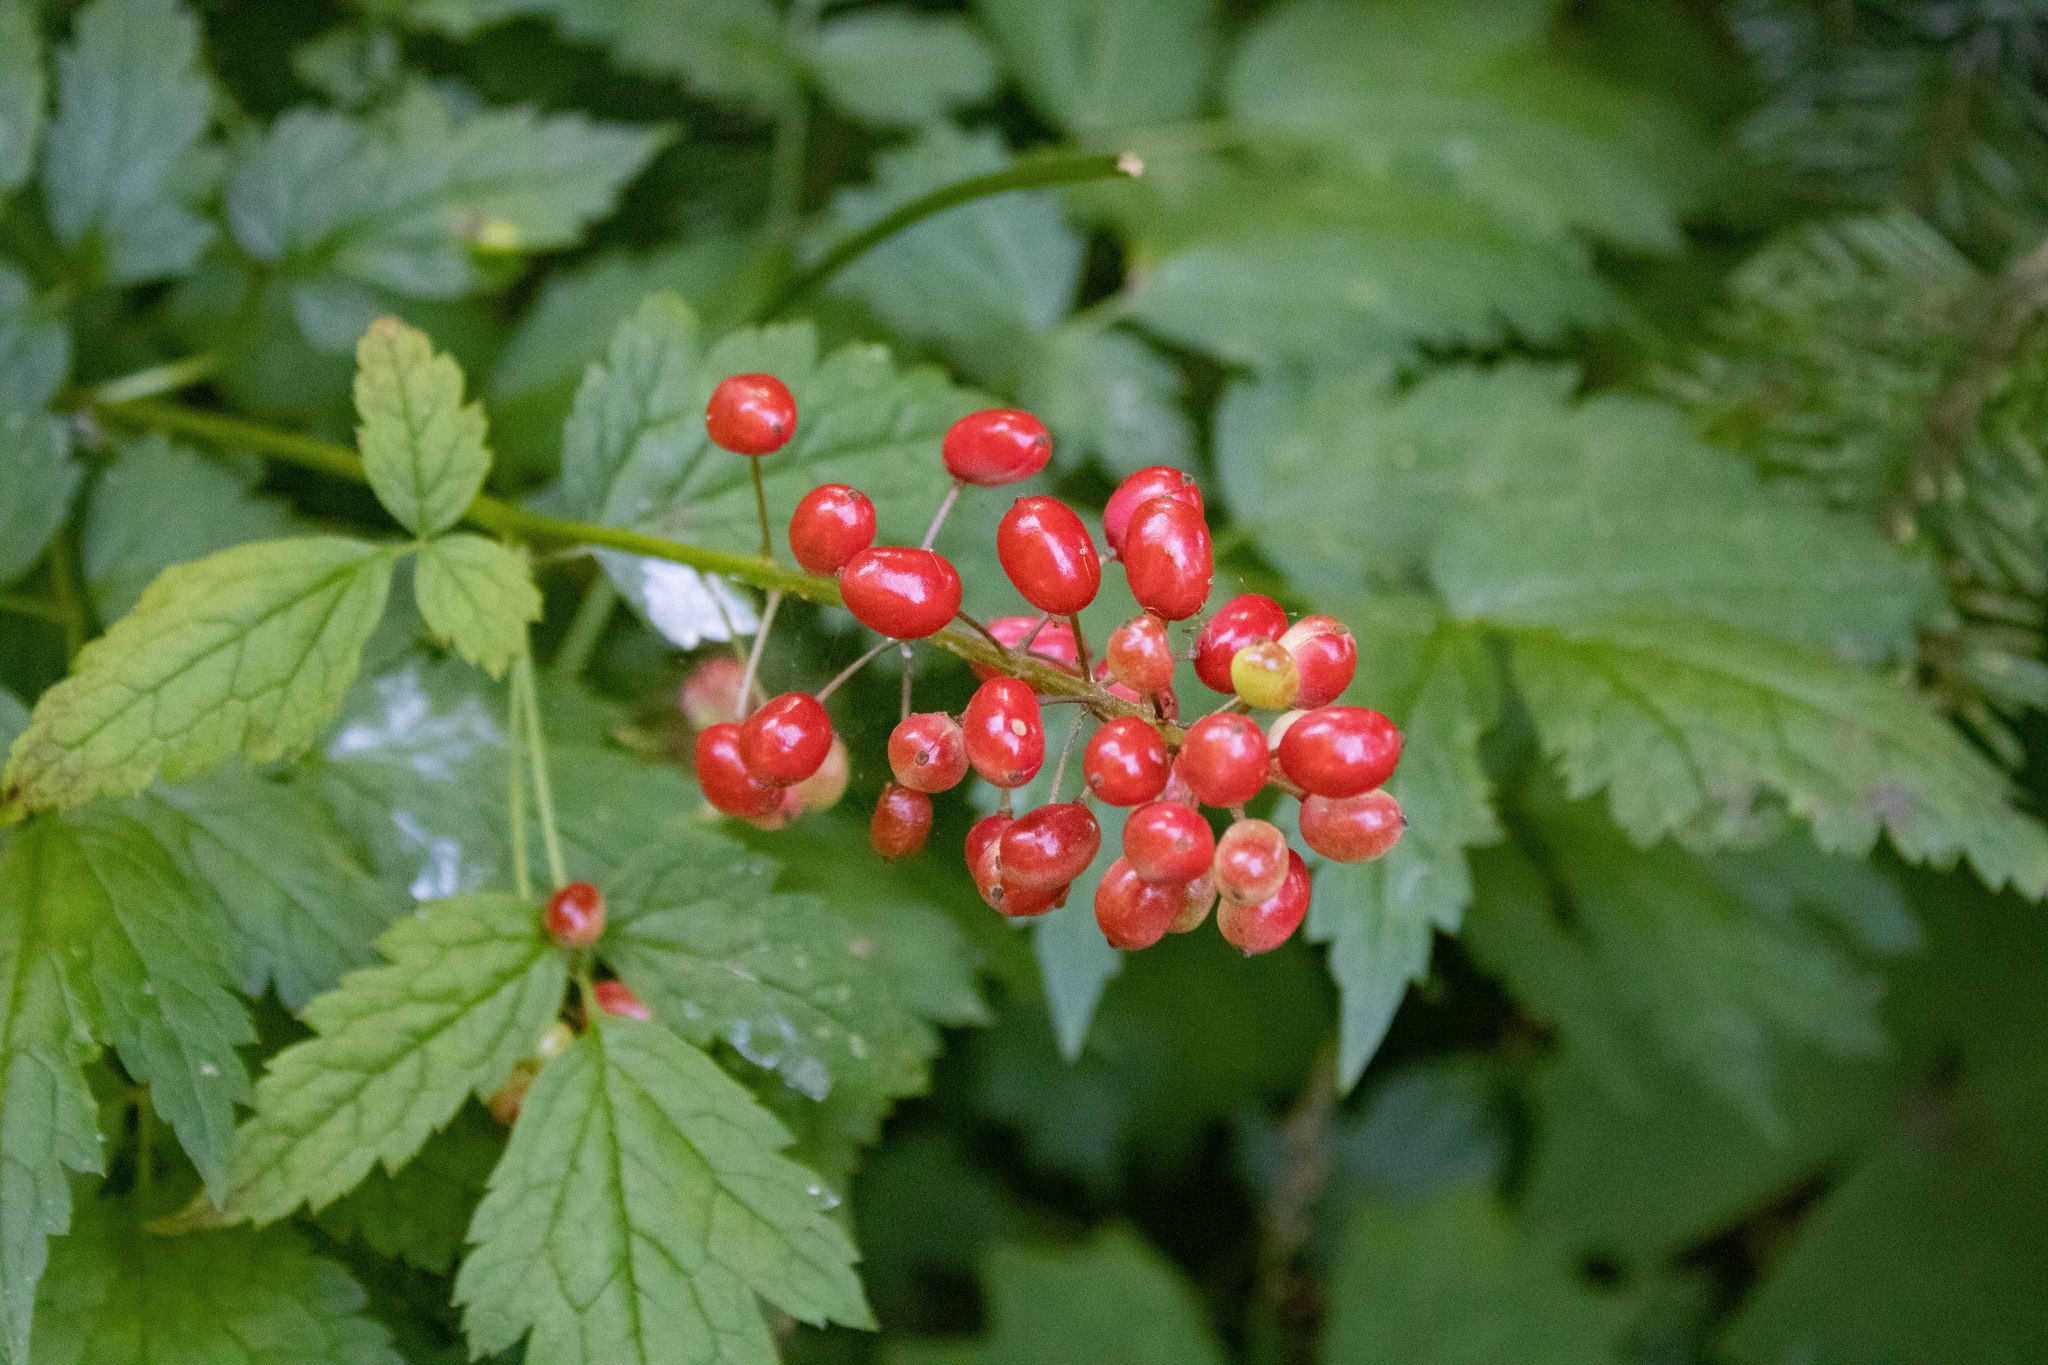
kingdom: Plantae
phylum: Tracheophyta
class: Magnoliopsida
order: Ranunculales
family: Ranunculaceae
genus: Actaea
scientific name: Actaea rubra
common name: Red baneberry
